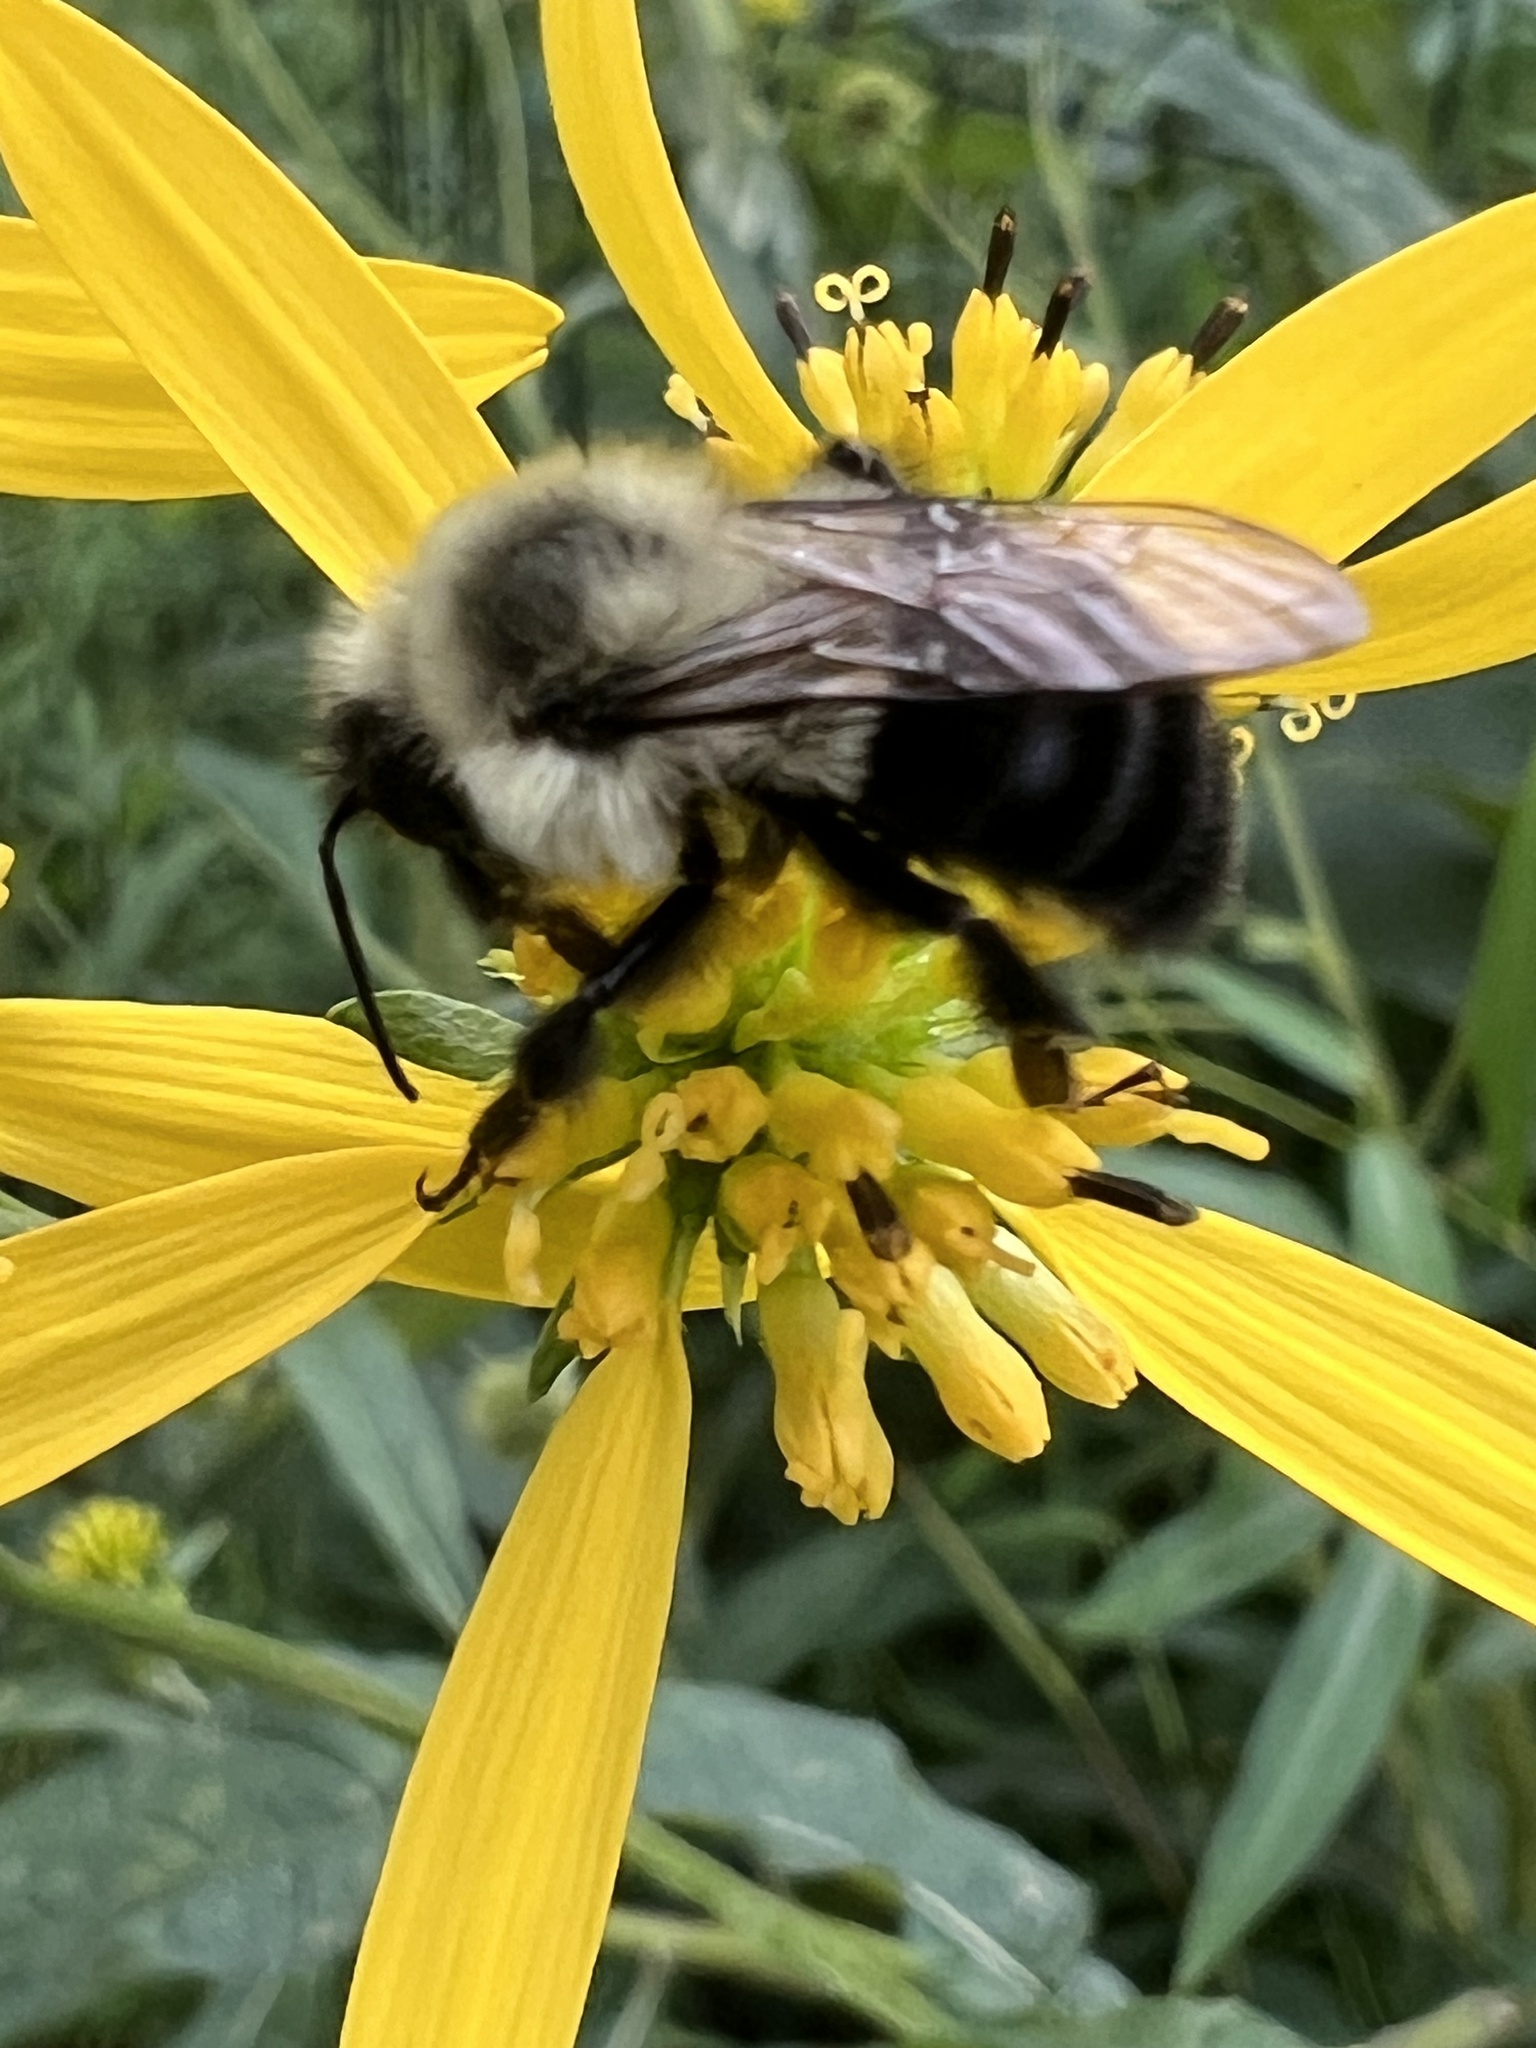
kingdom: Animalia
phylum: Arthropoda
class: Insecta
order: Hymenoptera
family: Apidae
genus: Bombus
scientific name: Bombus impatiens
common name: Common eastern bumble bee
